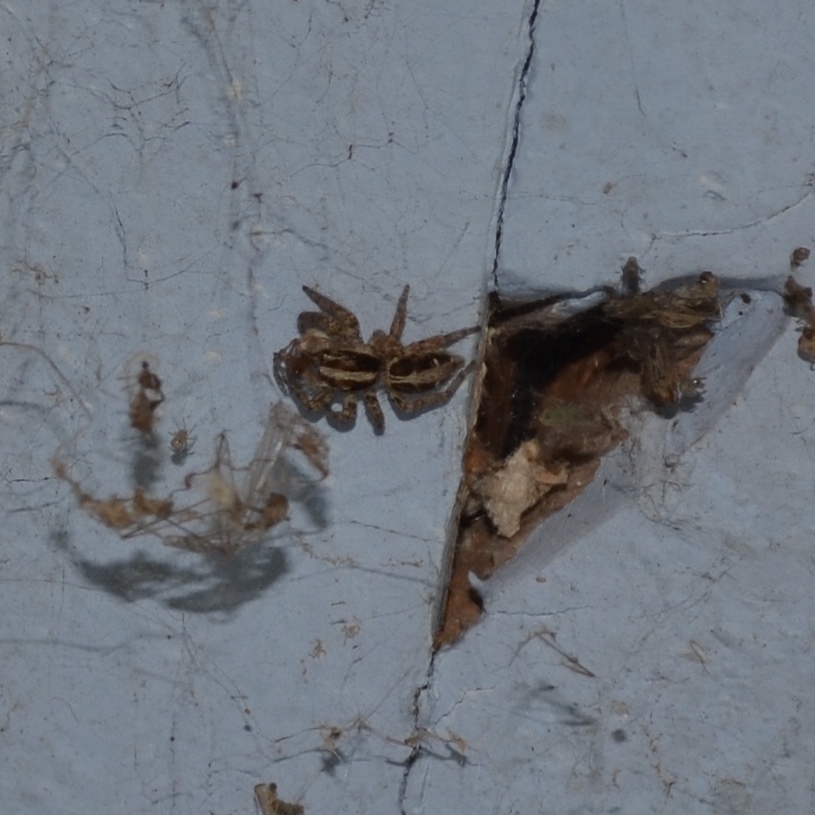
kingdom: Animalia
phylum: Arthropoda
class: Arachnida
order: Araneae
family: Salticidae
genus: Plexippus
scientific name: Plexippus paykulli
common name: Pantropical jumper
